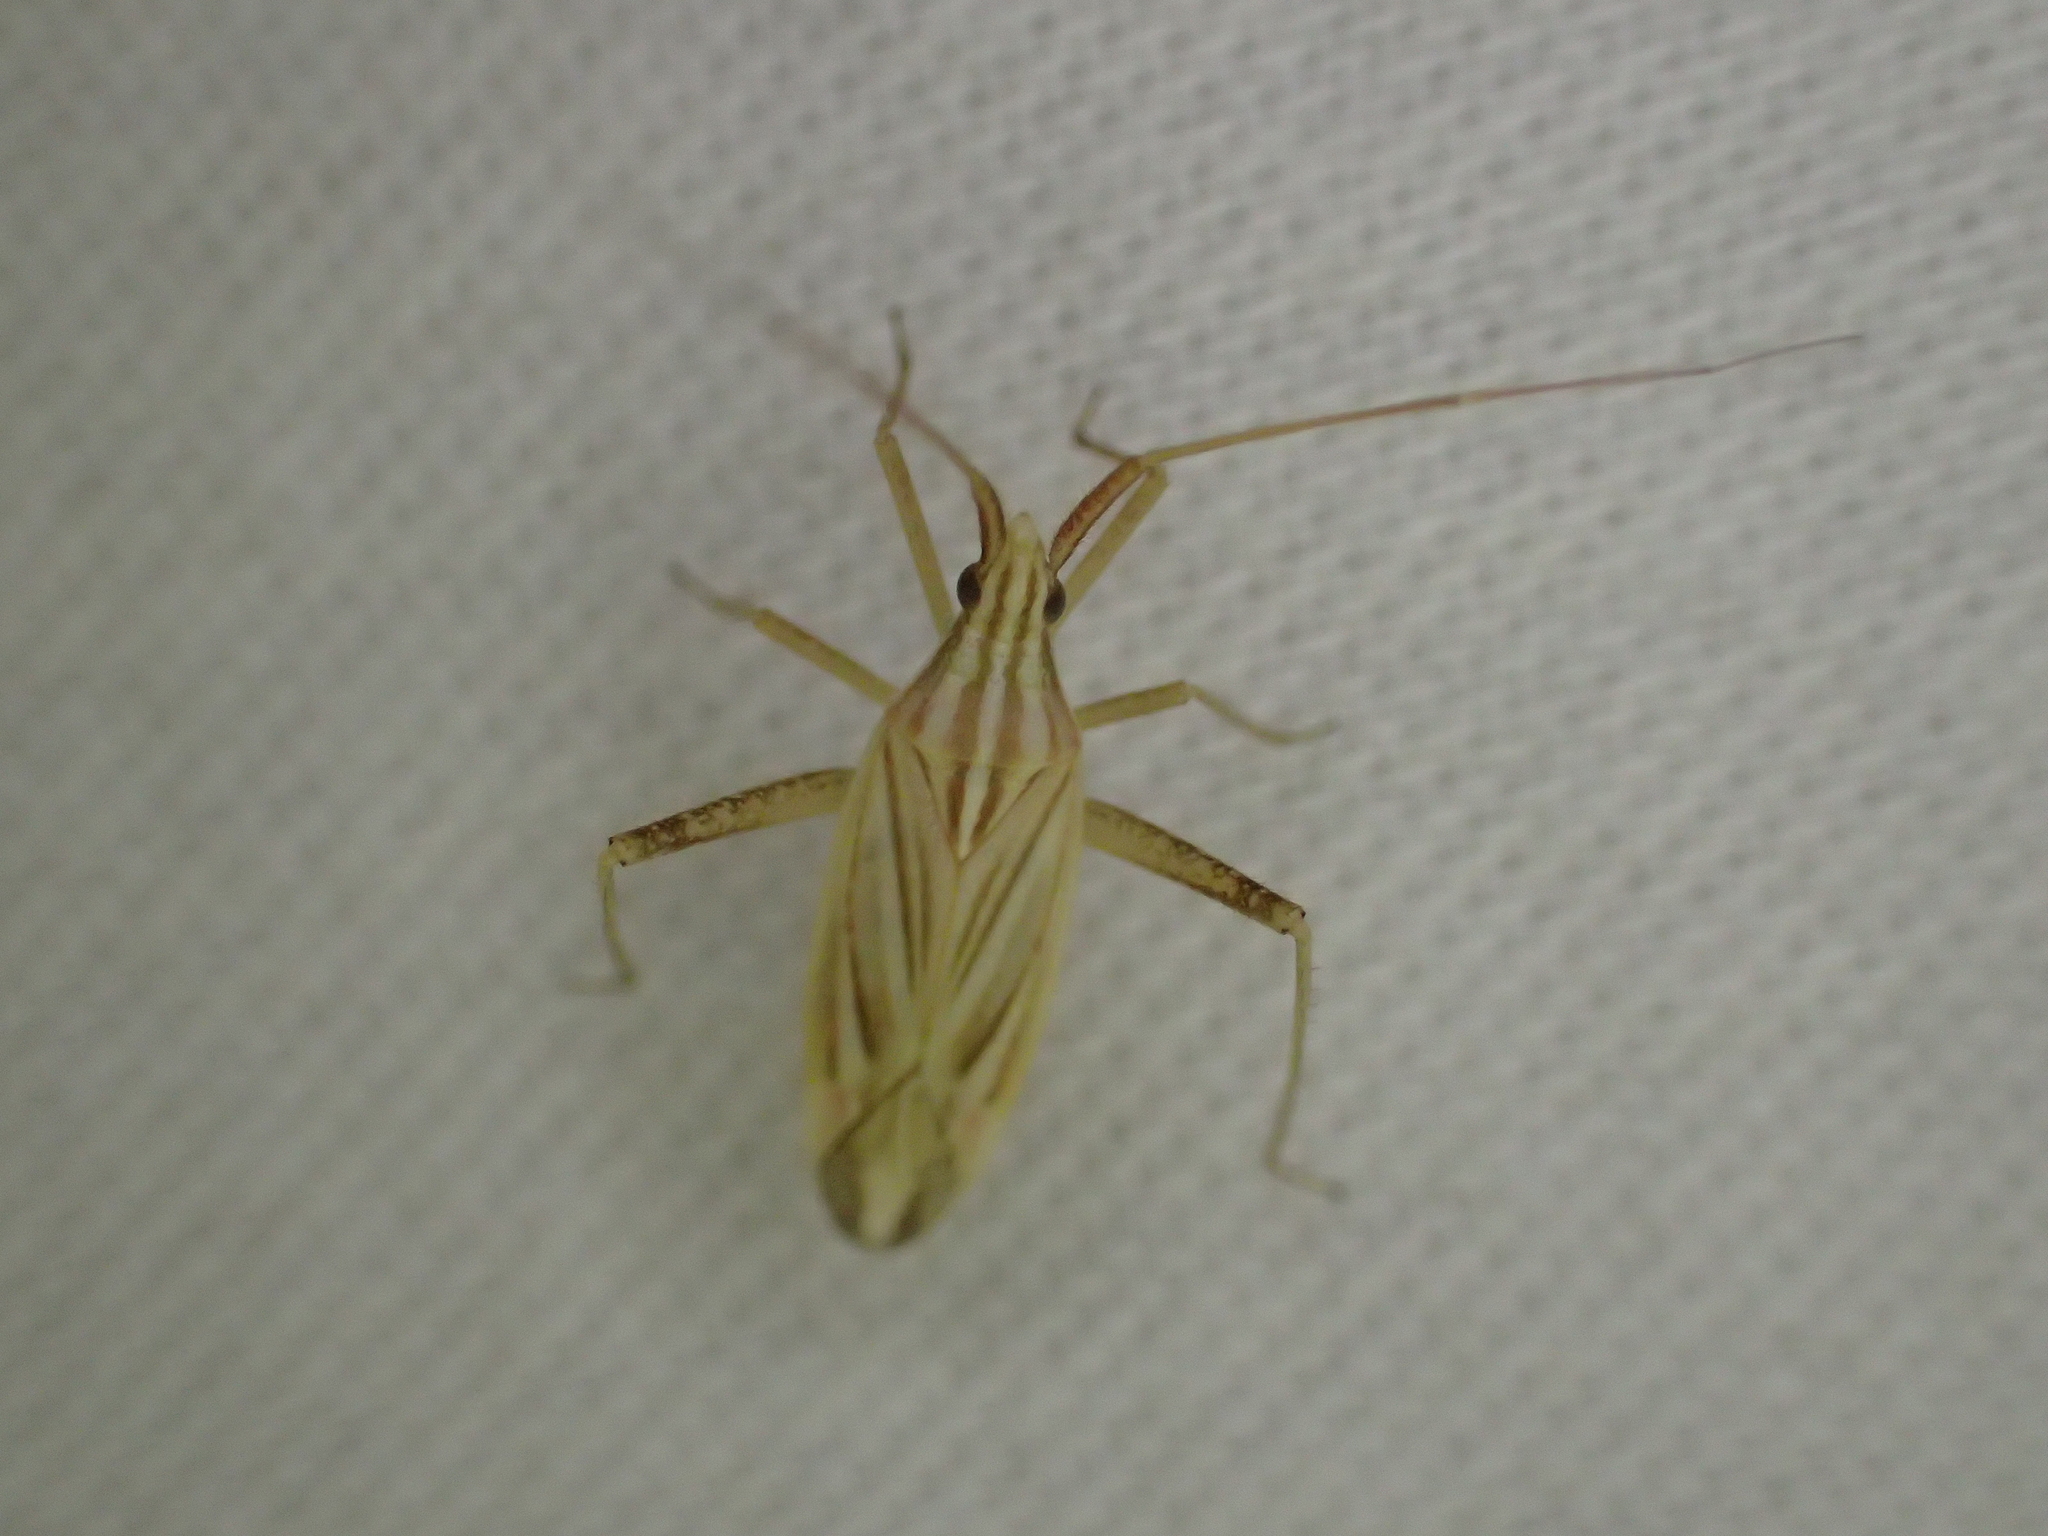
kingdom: Animalia
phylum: Arthropoda
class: Insecta
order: Hemiptera
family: Miridae
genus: Miridius
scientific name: Miridius quadrivirgatus
